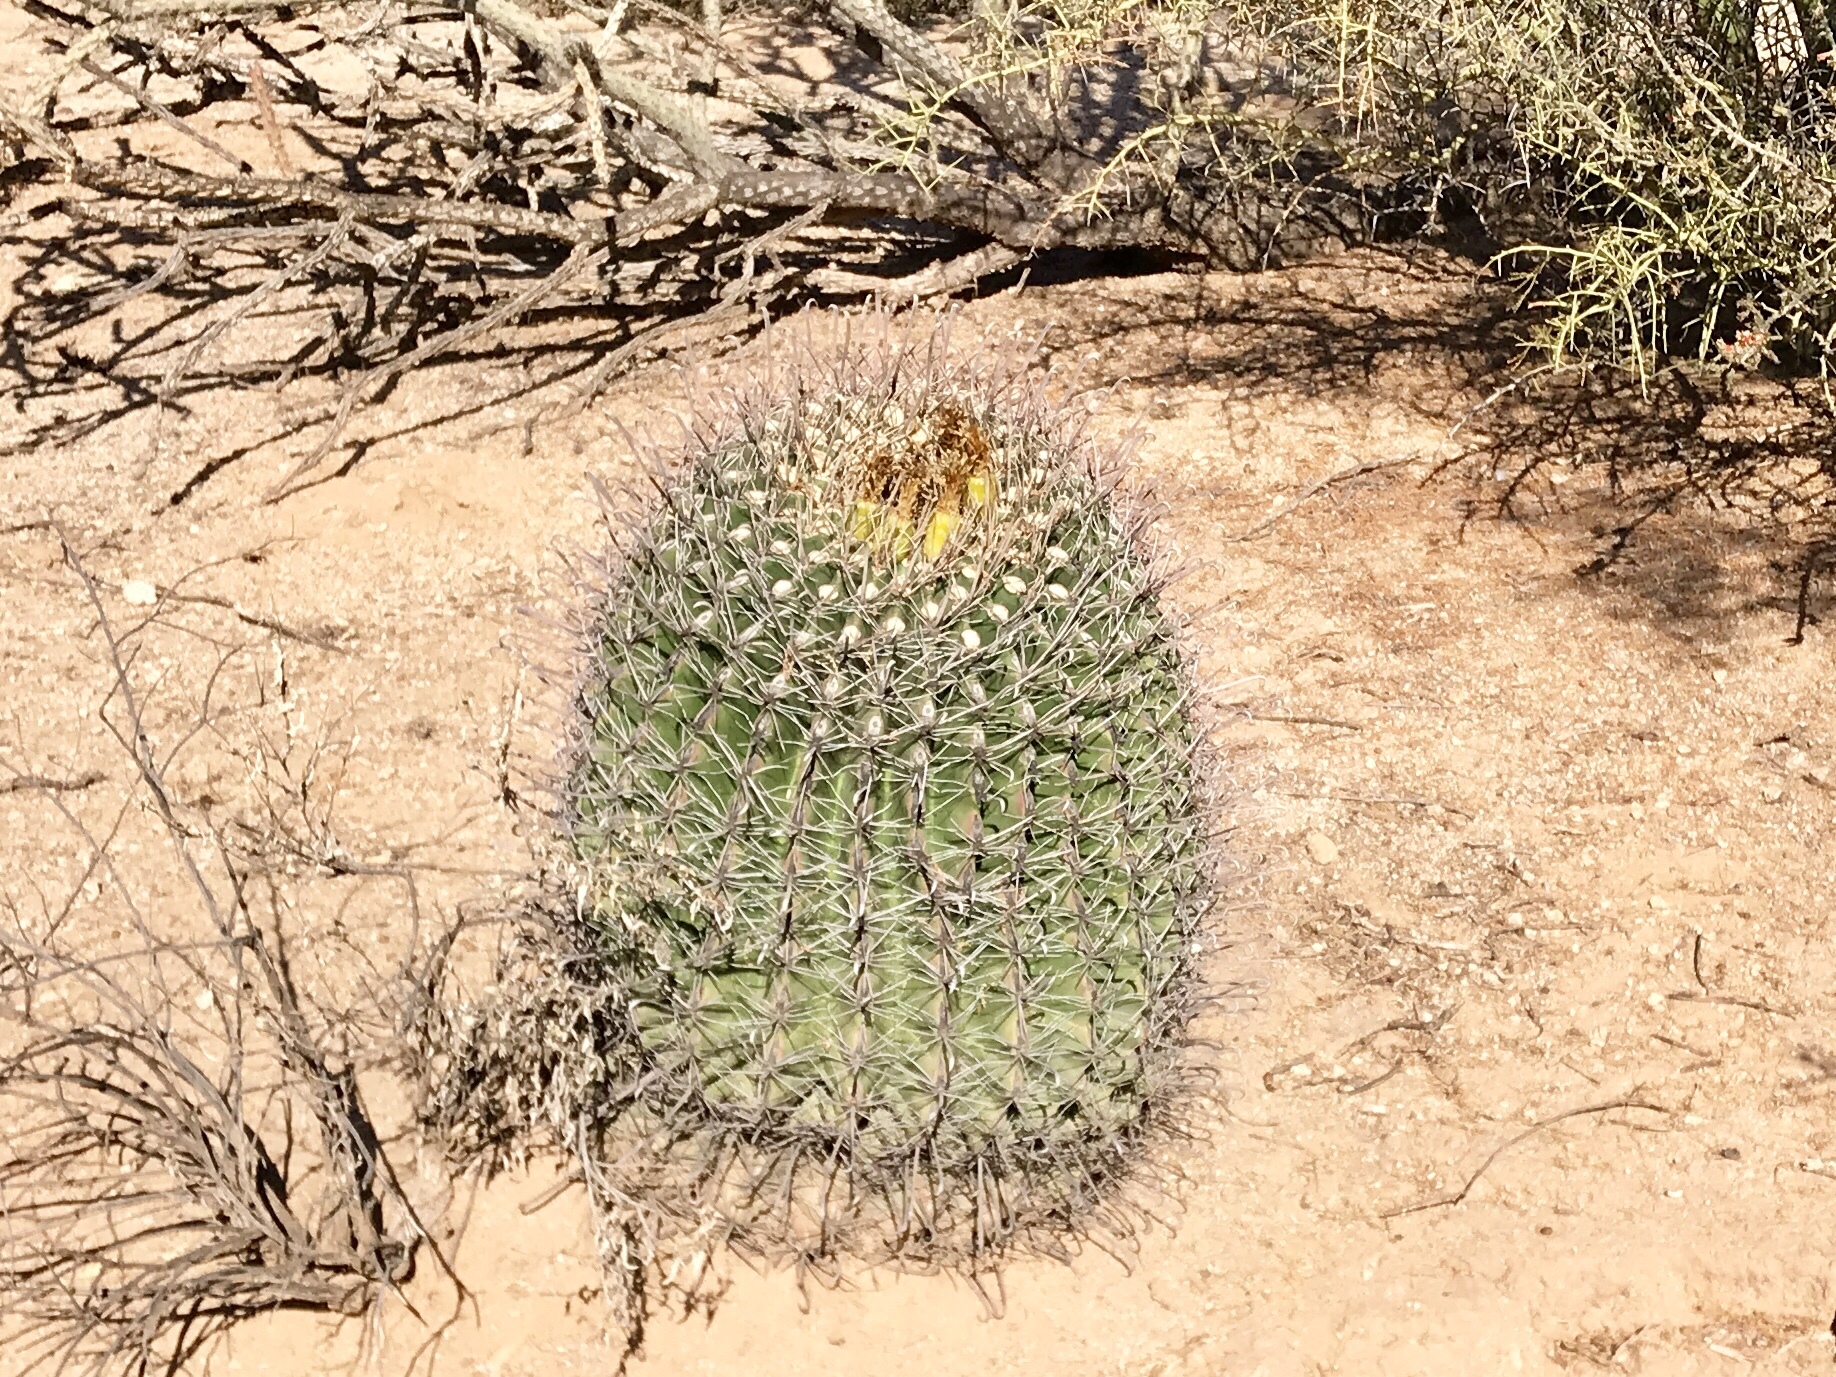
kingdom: Plantae
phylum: Tracheophyta
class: Magnoliopsida
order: Caryophyllales
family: Cactaceae
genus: Ferocactus
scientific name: Ferocactus wislizeni
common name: Candy barrel cactus
